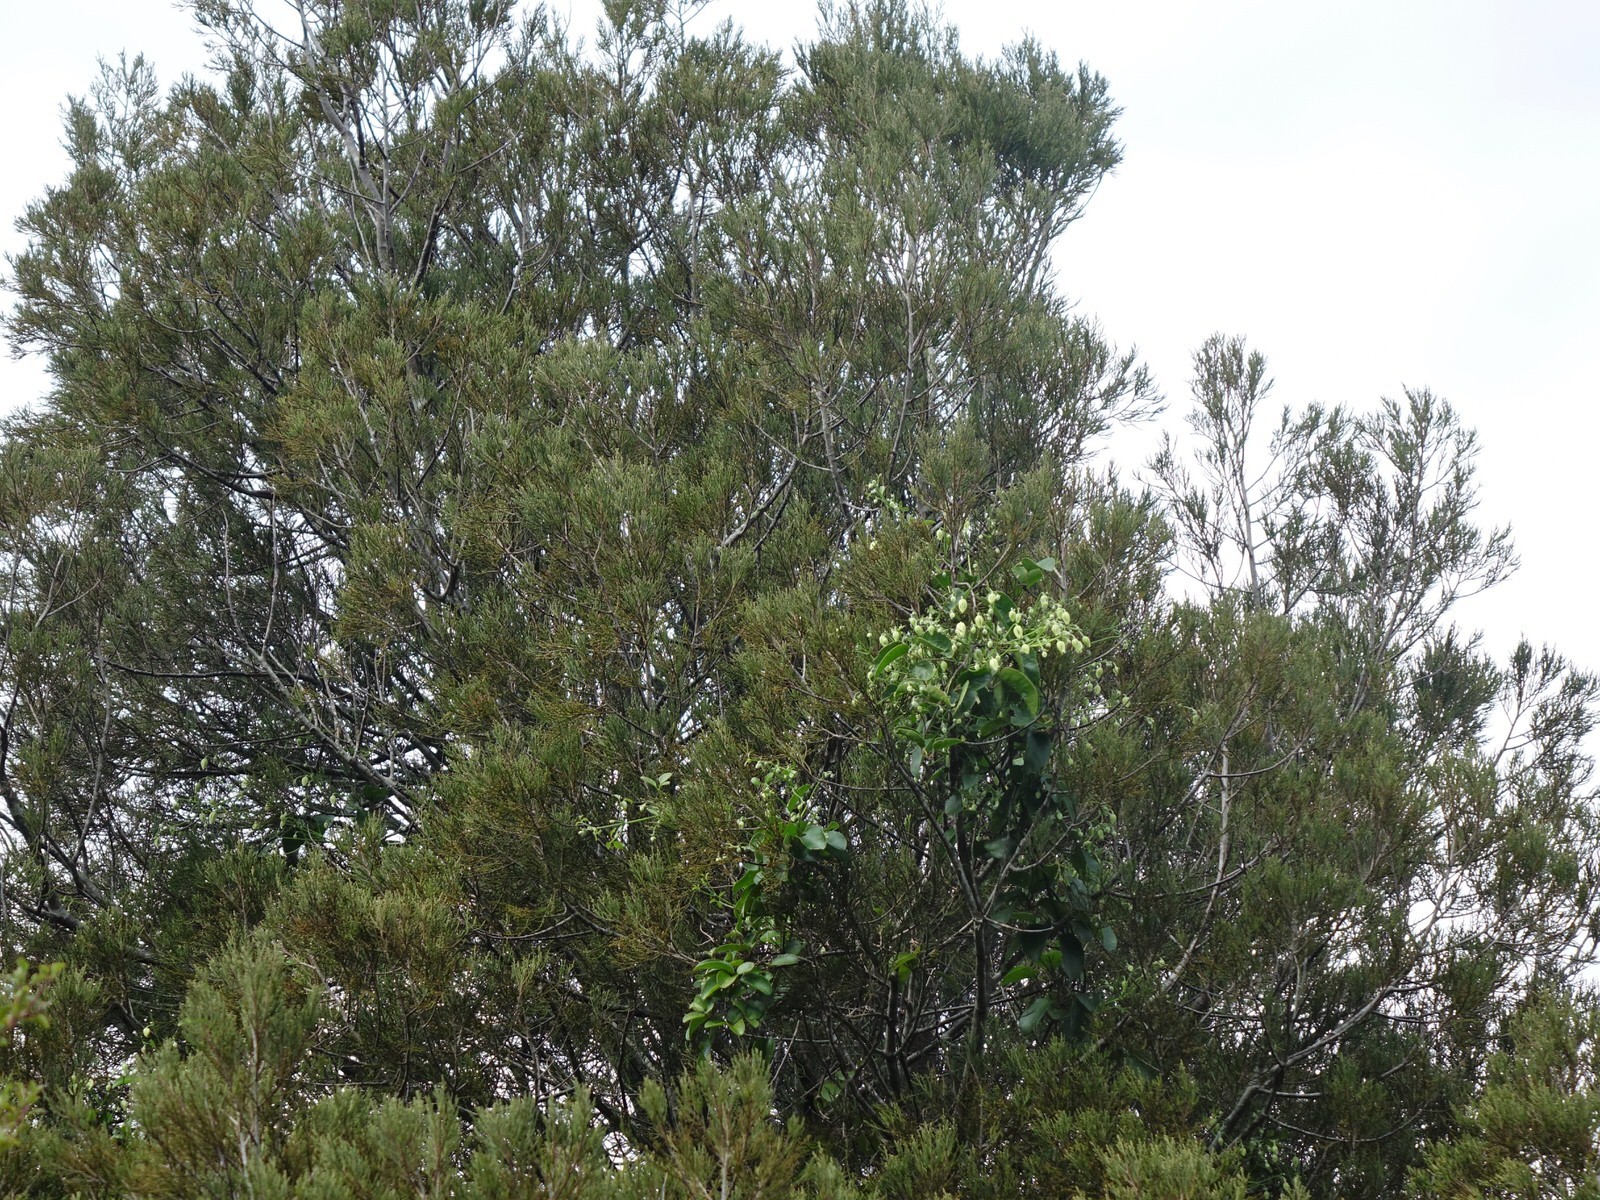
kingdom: Plantae
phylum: Tracheophyta
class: Magnoliopsida
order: Ranunculales
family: Ranunculaceae
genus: Clematis
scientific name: Clematis paniculata
